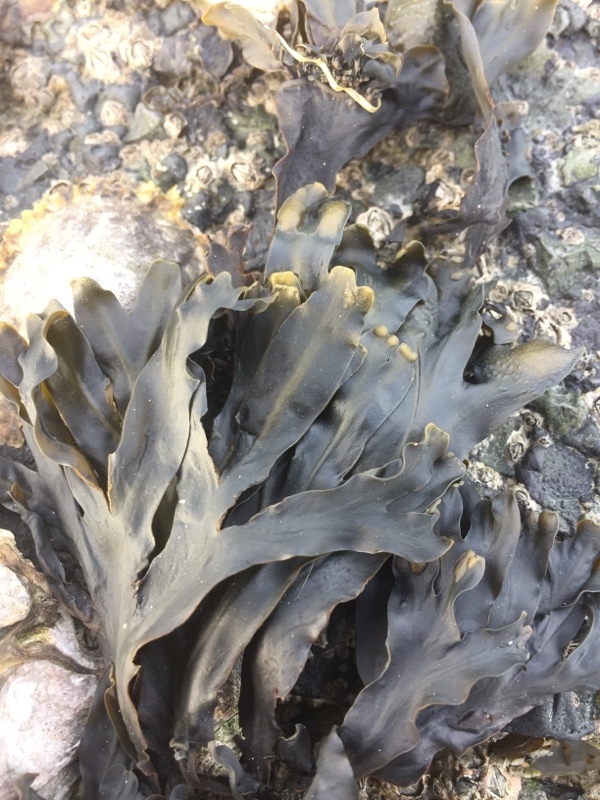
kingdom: Chromista
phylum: Ochrophyta
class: Phaeophyceae
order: Fucales
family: Fucaceae
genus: Fucus
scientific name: Fucus spiralis
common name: Spiral wrack
